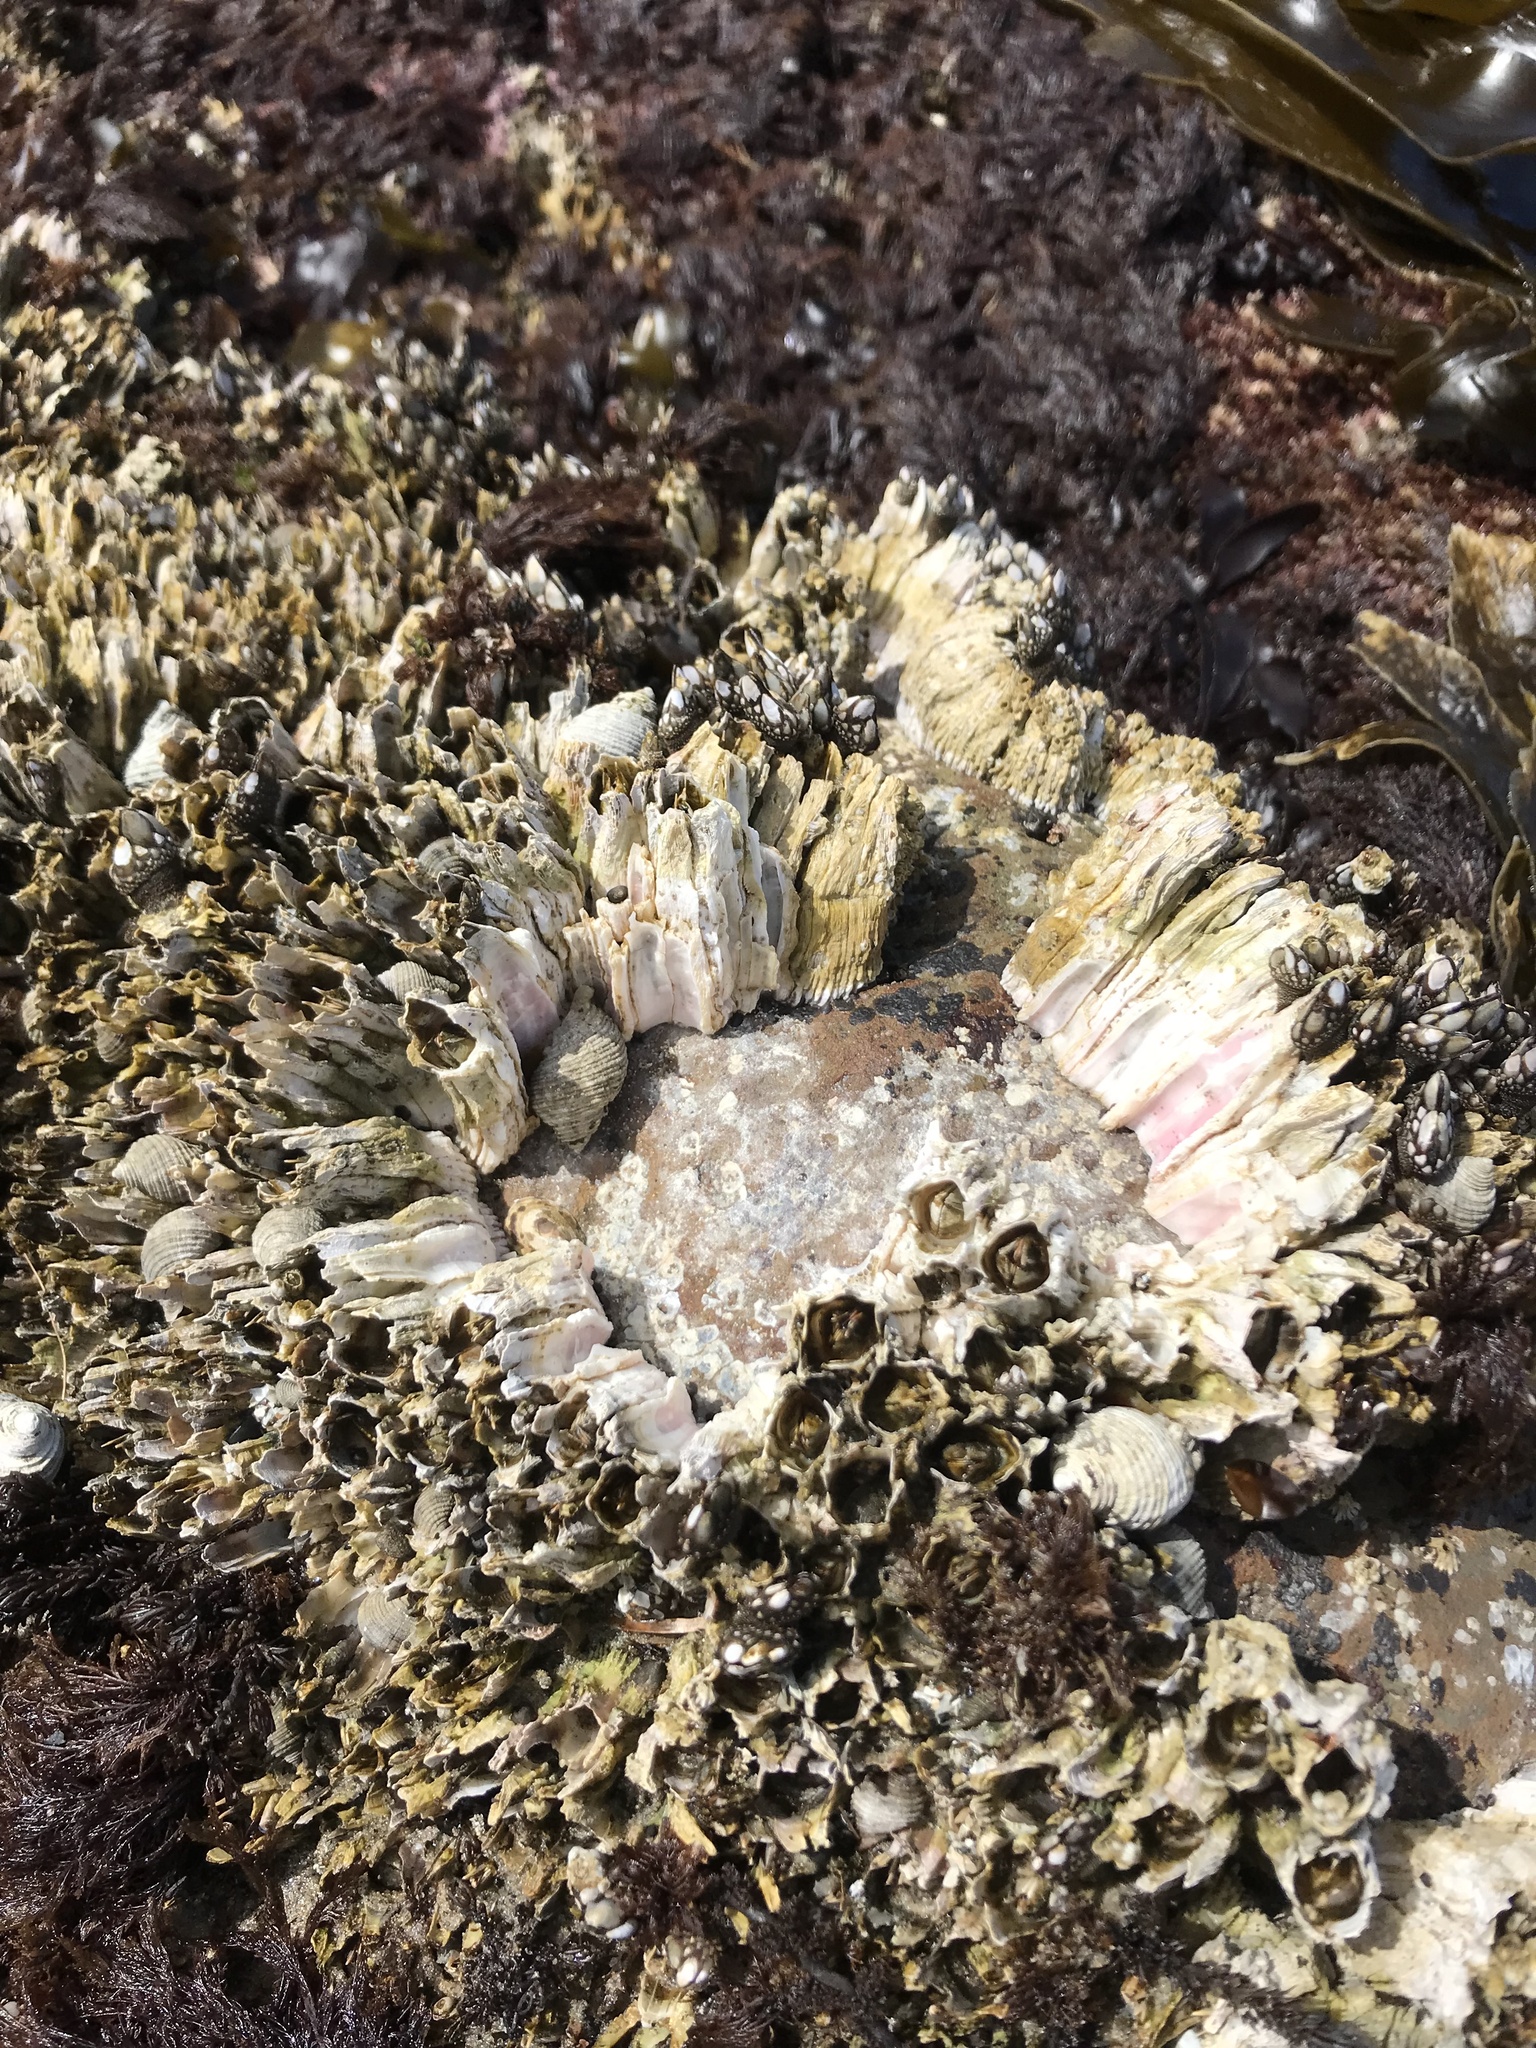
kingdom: Animalia
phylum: Arthropoda
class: Maxillopoda
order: Sessilia
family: Archaeobalanidae
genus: Semibalanus
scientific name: Semibalanus cariosus
